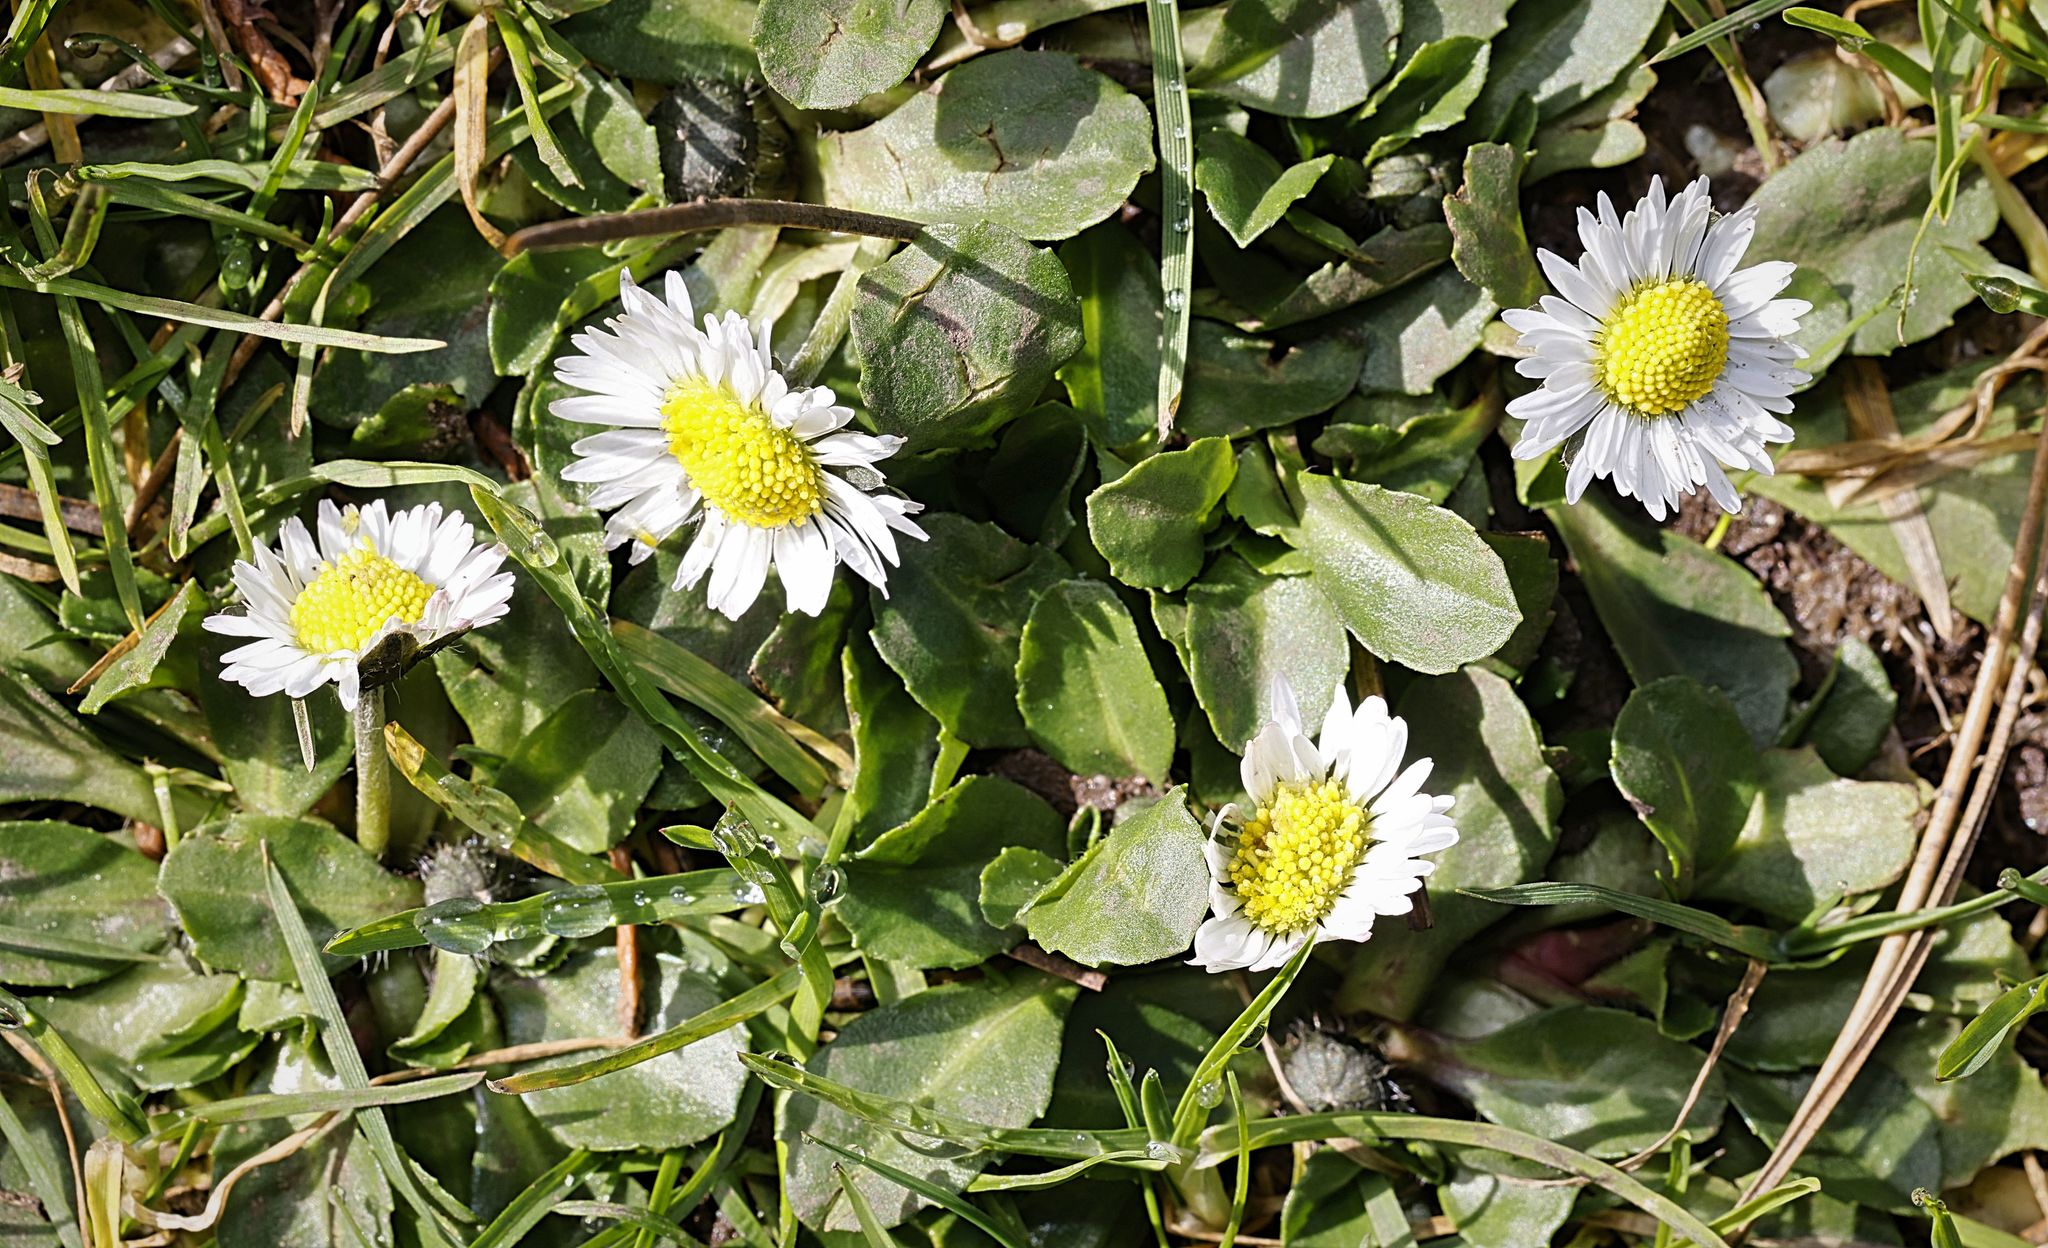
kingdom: Plantae
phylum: Tracheophyta
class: Magnoliopsida
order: Asterales
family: Asteraceae
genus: Bellis
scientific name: Bellis perennis
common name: Lawndaisy
